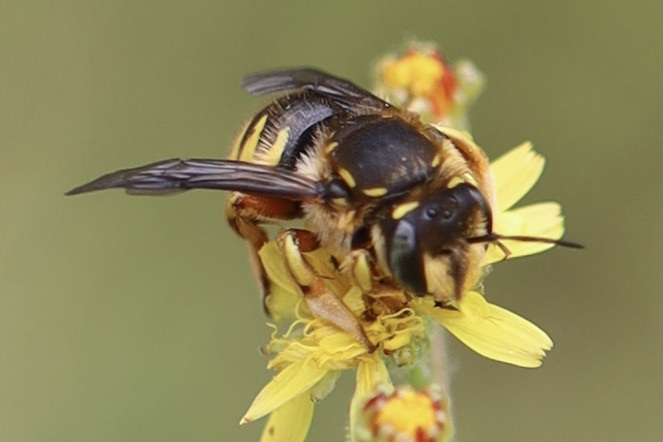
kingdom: Animalia
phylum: Arthropoda
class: Insecta
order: Hymenoptera
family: Megachilidae
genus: Anthidium
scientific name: Anthidium manicatum
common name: Wool carder bee
